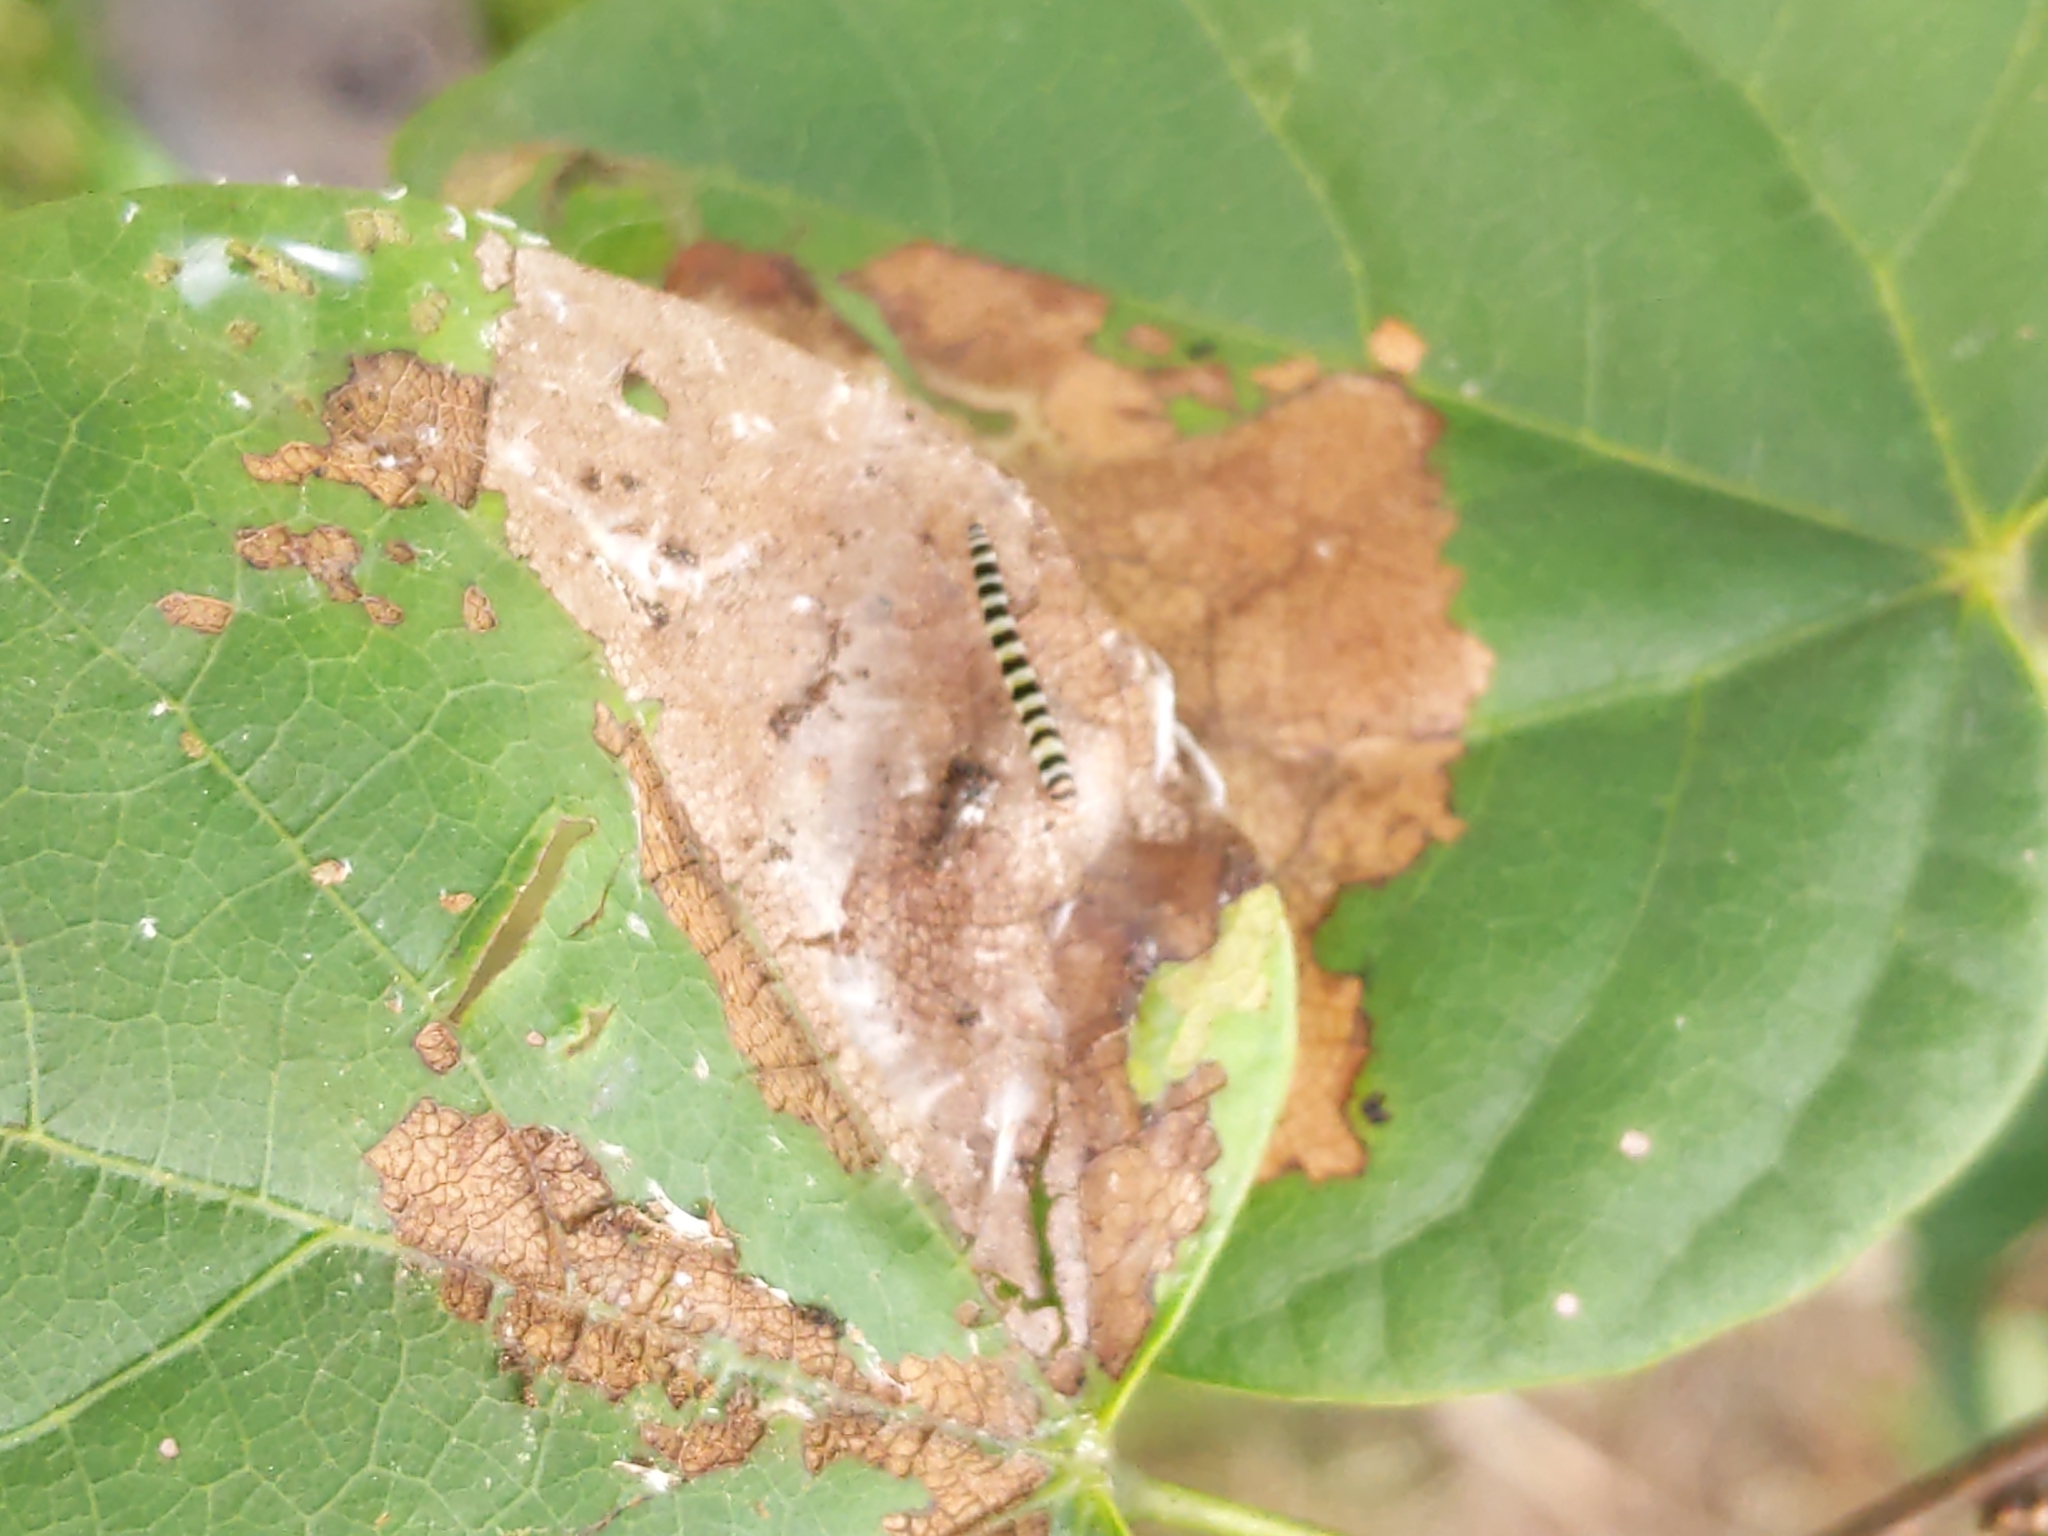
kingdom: Animalia
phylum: Arthropoda
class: Insecta
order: Lepidoptera
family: Gelechiidae
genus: Fascista
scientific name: Fascista cercerisella
